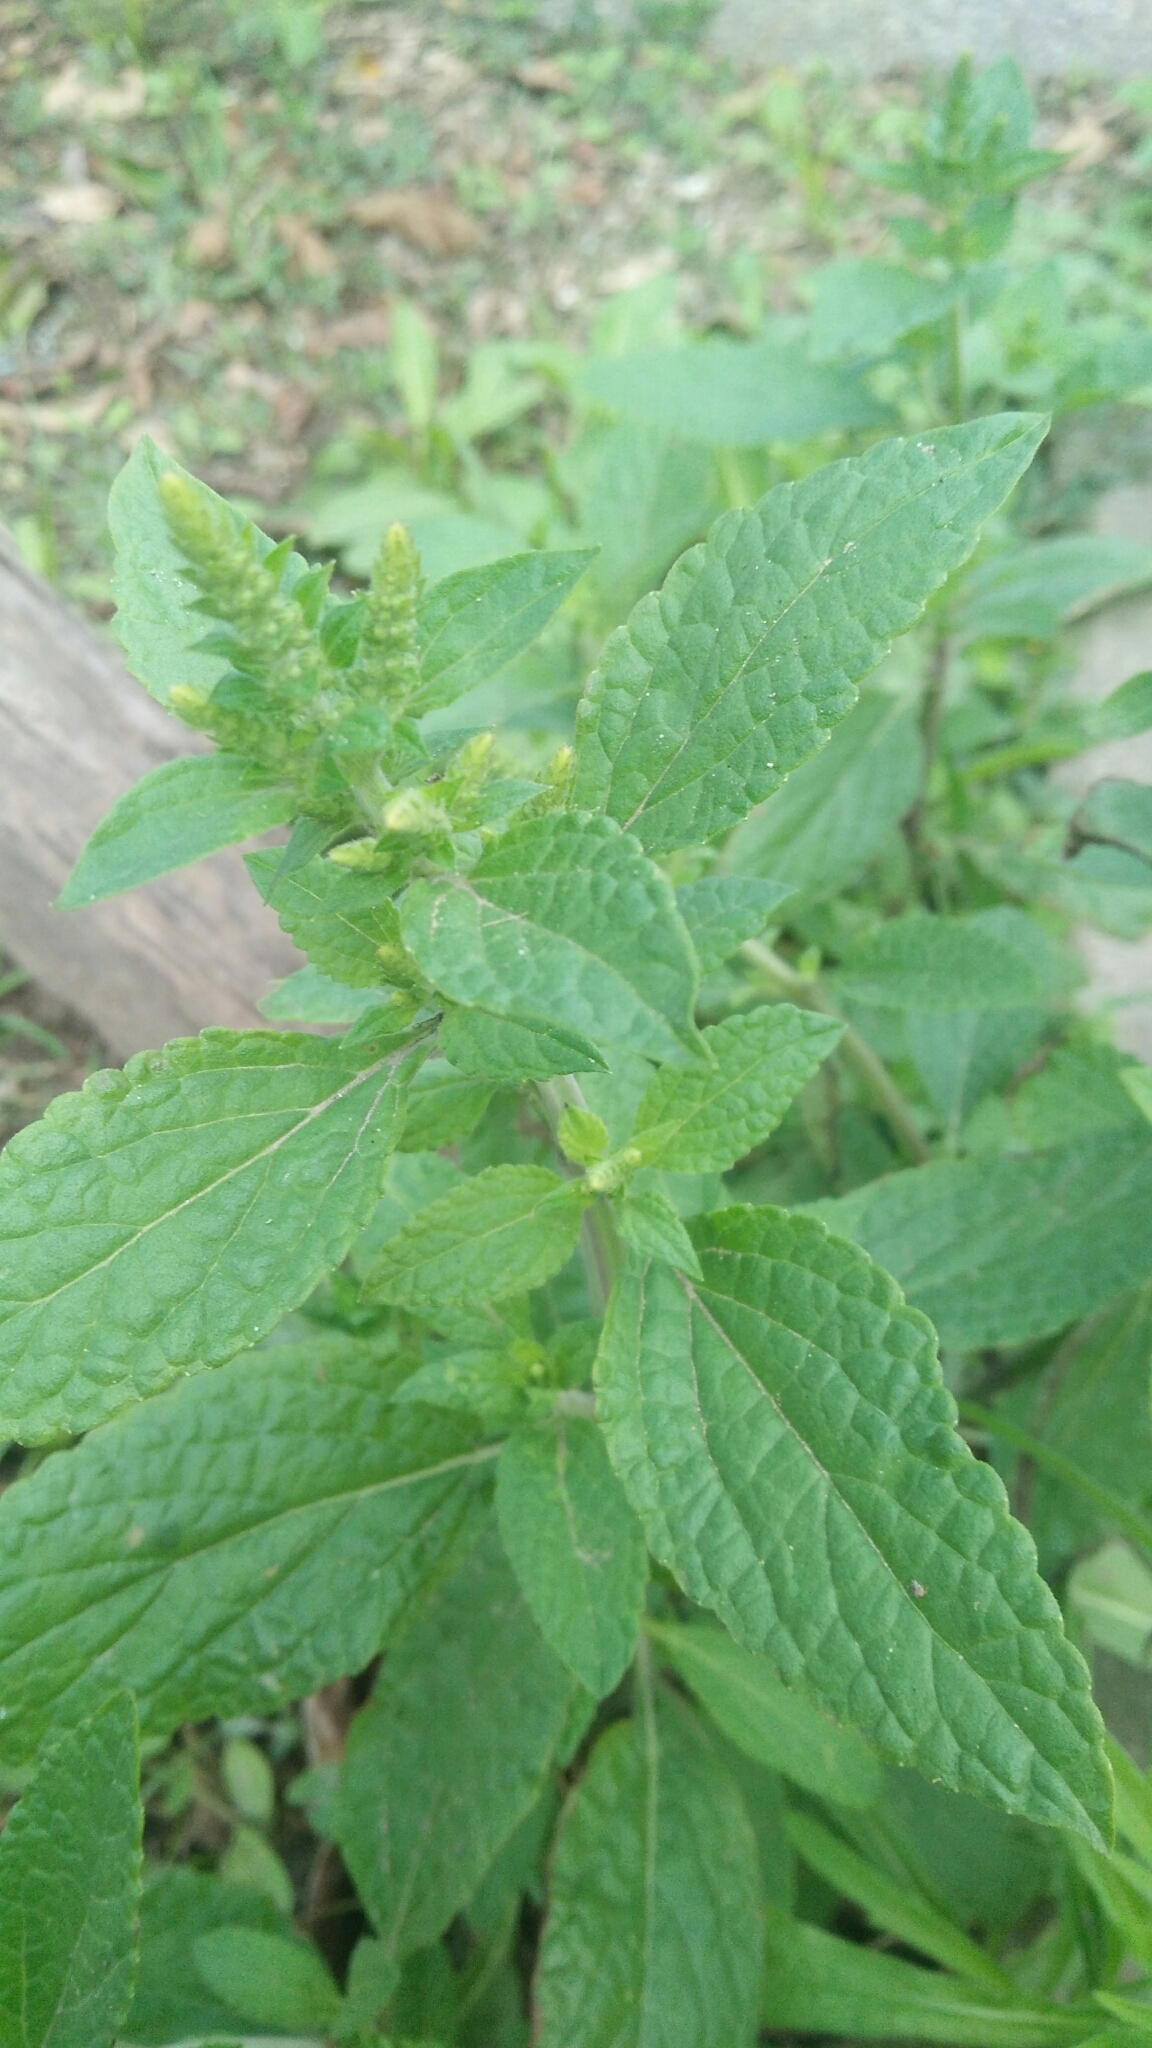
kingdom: Plantae
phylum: Tracheophyta
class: Magnoliopsida
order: Lamiales
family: Lamiaceae
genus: Salvia
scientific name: Salvia plebeia
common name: Australian sage
